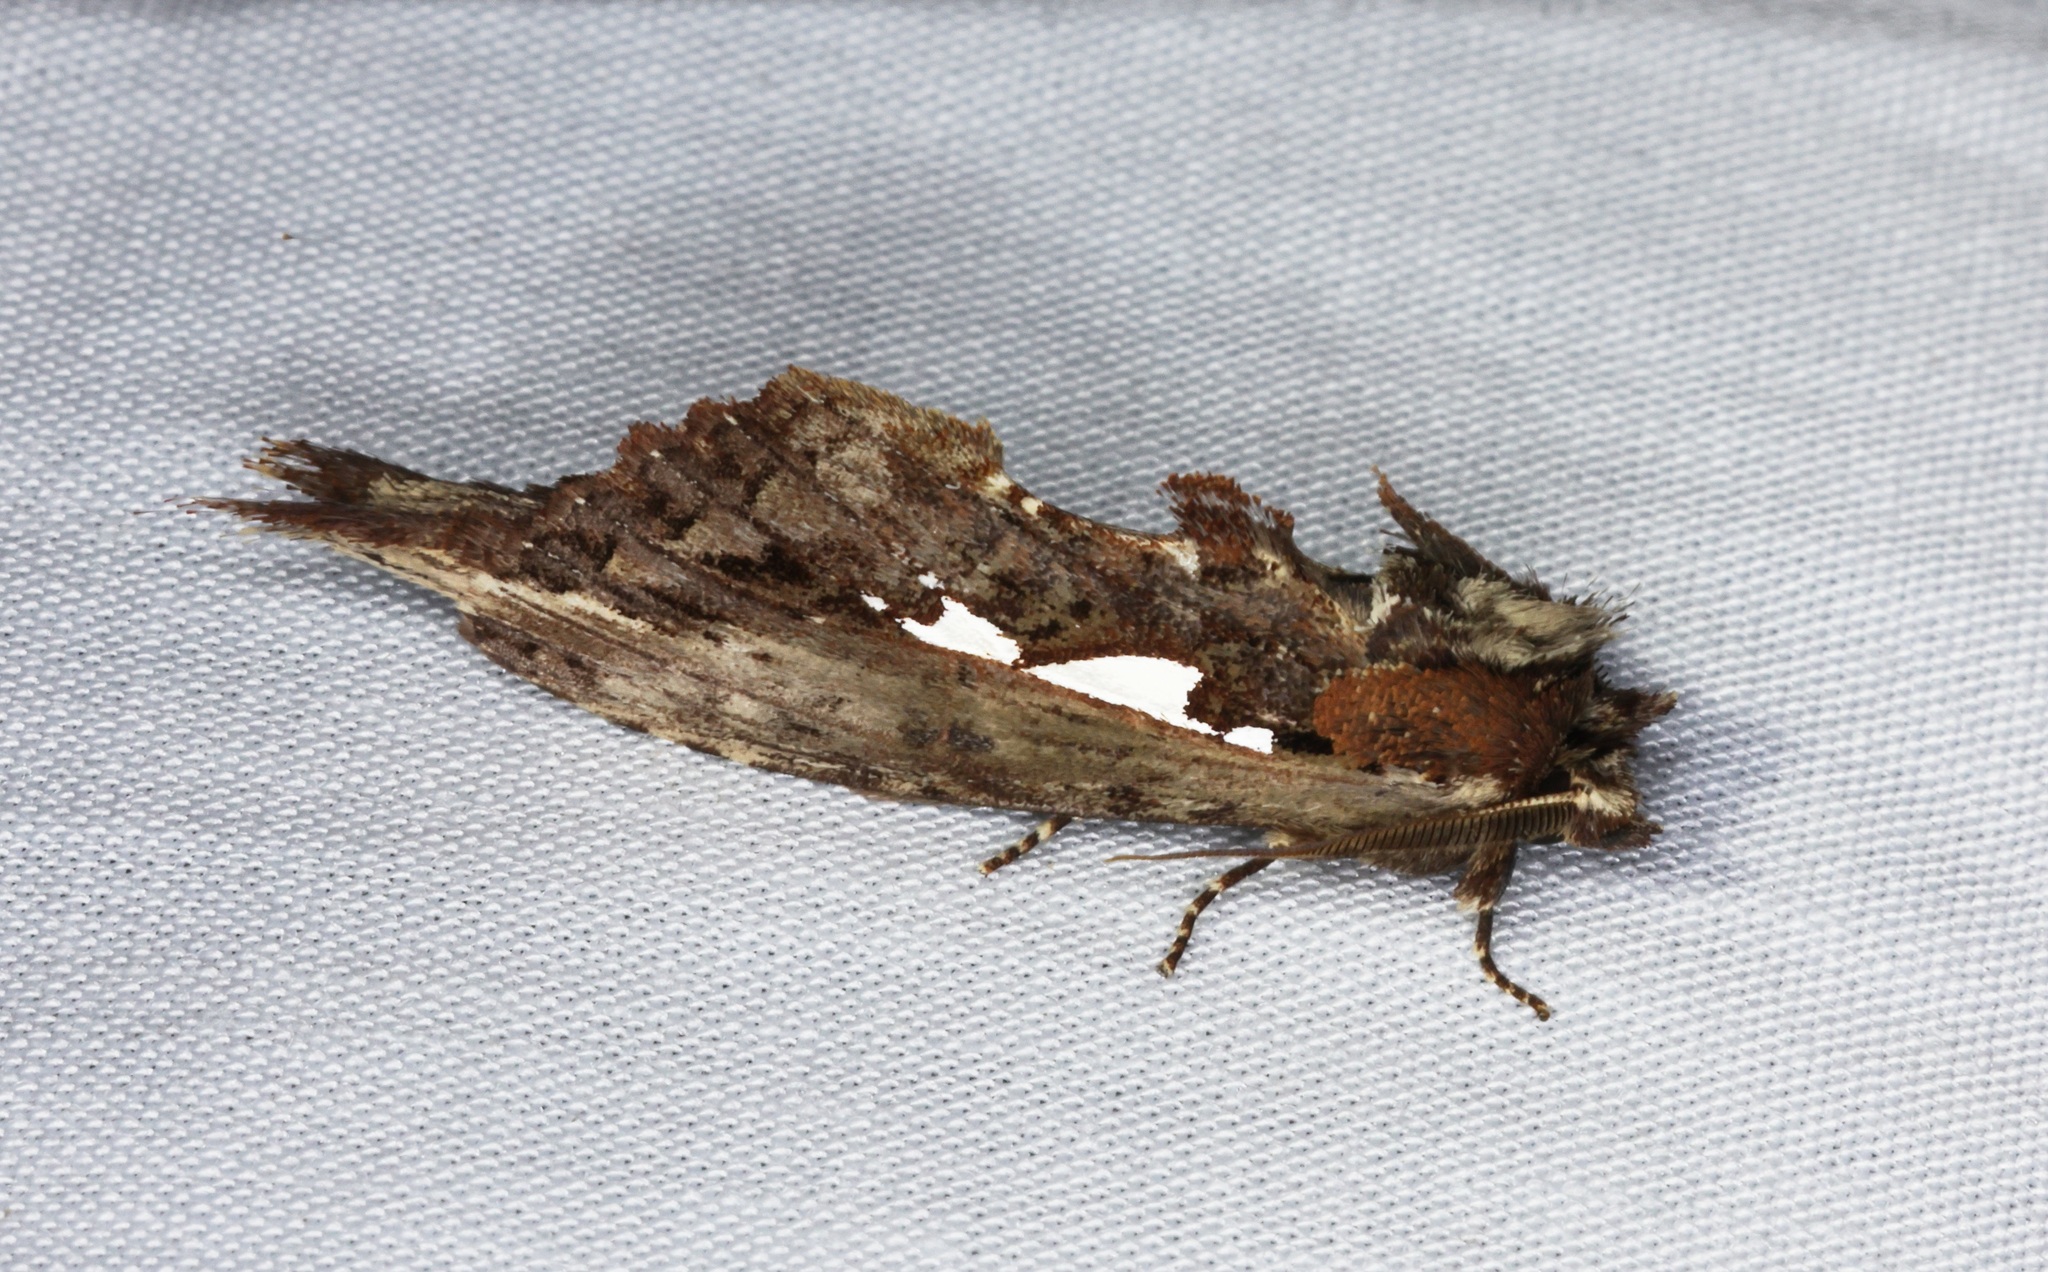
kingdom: Animalia
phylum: Arthropoda
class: Insecta
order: Lepidoptera
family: Notodontidae
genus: Spatalia
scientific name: Spatalia
